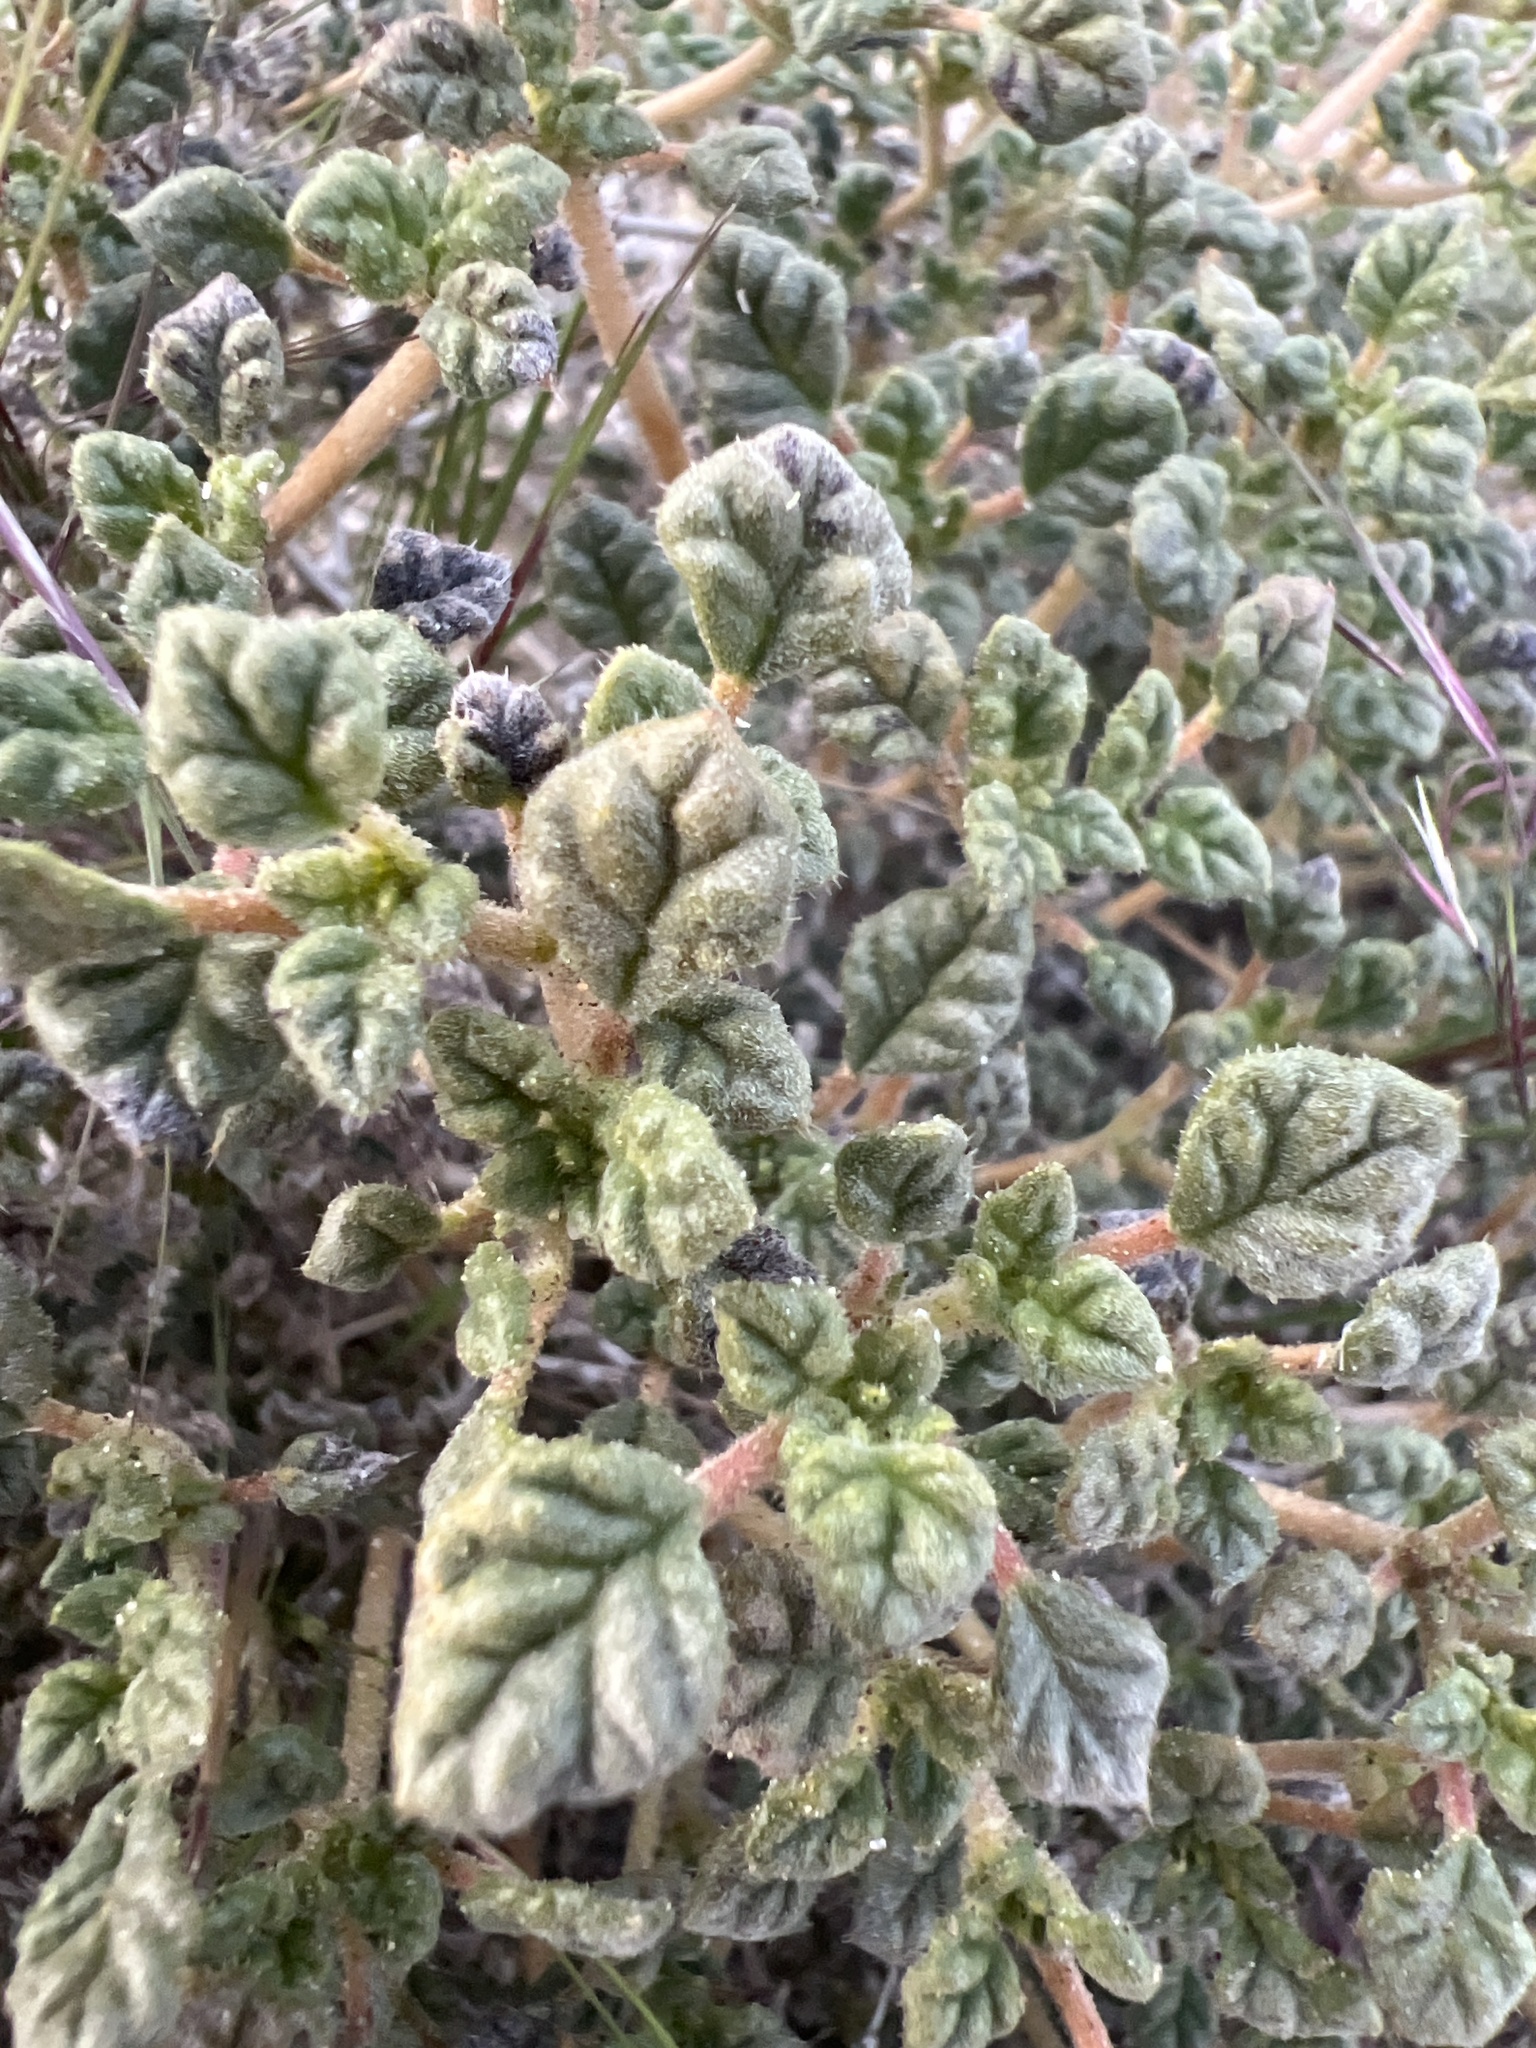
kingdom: Plantae
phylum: Tracheophyta
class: Magnoliopsida
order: Boraginales
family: Ehretiaceae
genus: Tiquilia
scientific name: Tiquilia palmeri
